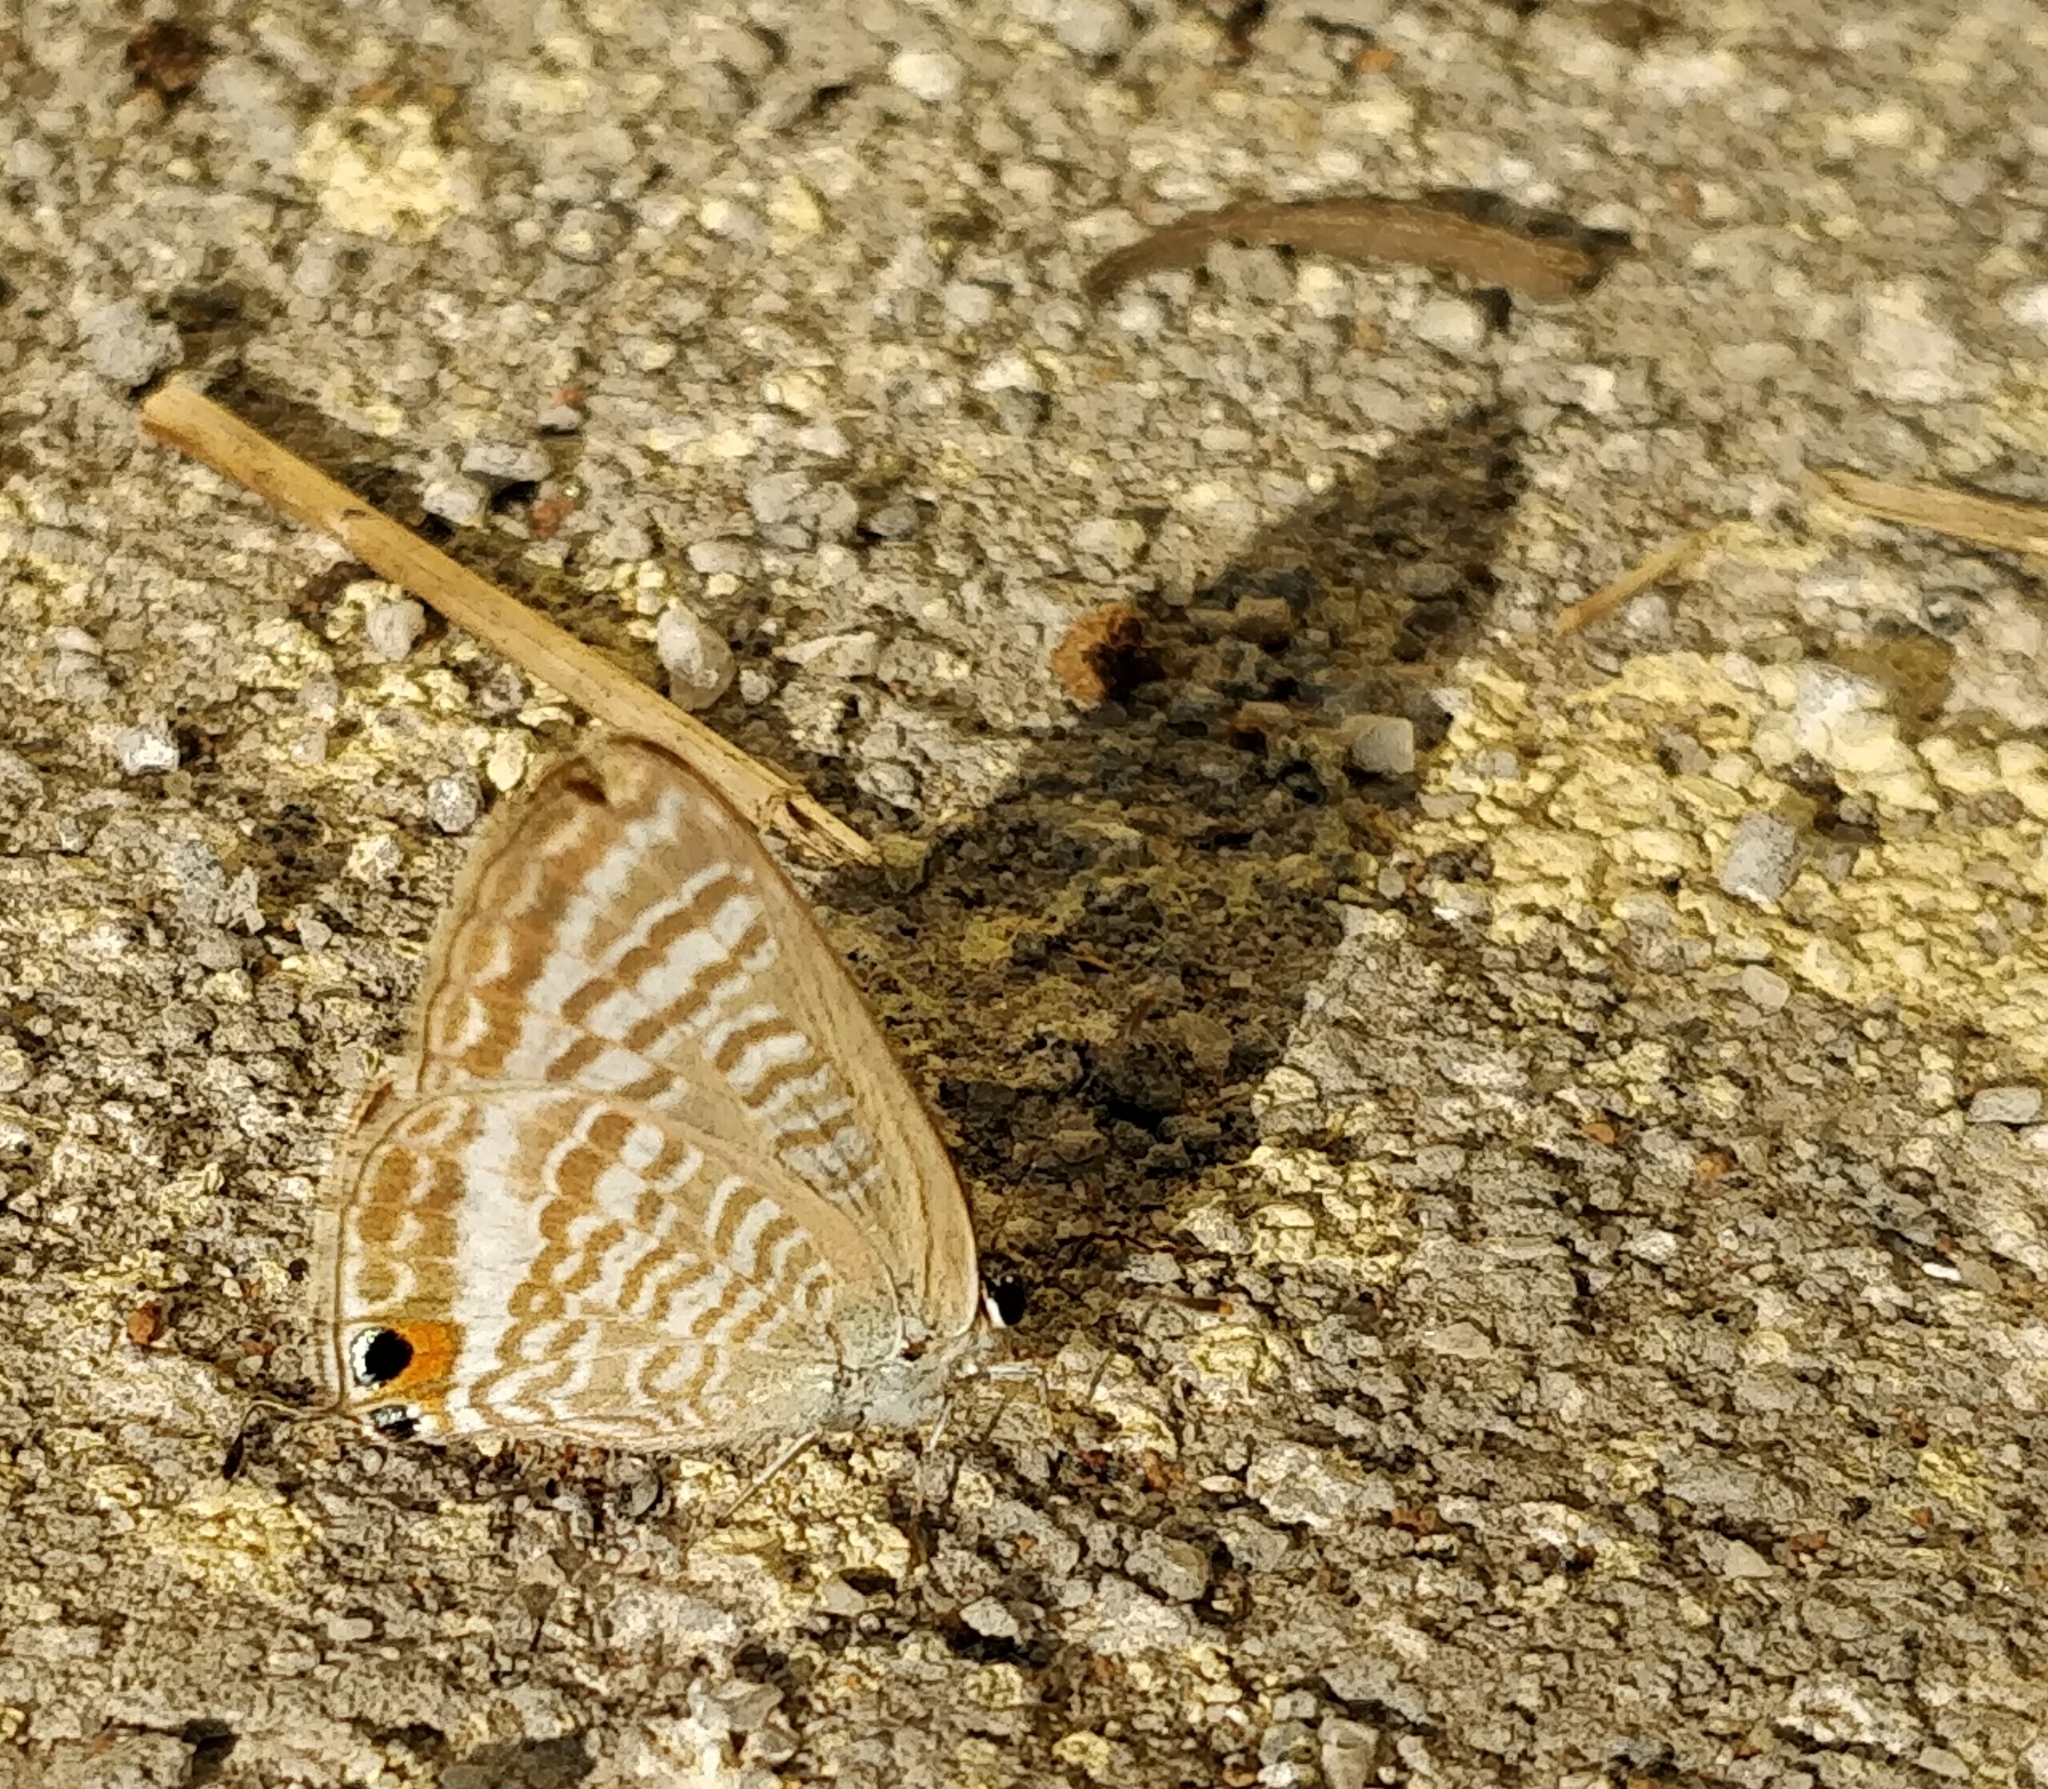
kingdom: Animalia
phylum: Arthropoda
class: Insecta
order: Lepidoptera
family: Lycaenidae
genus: Lampides
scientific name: Lampides boeticus
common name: Long-tailed blue
